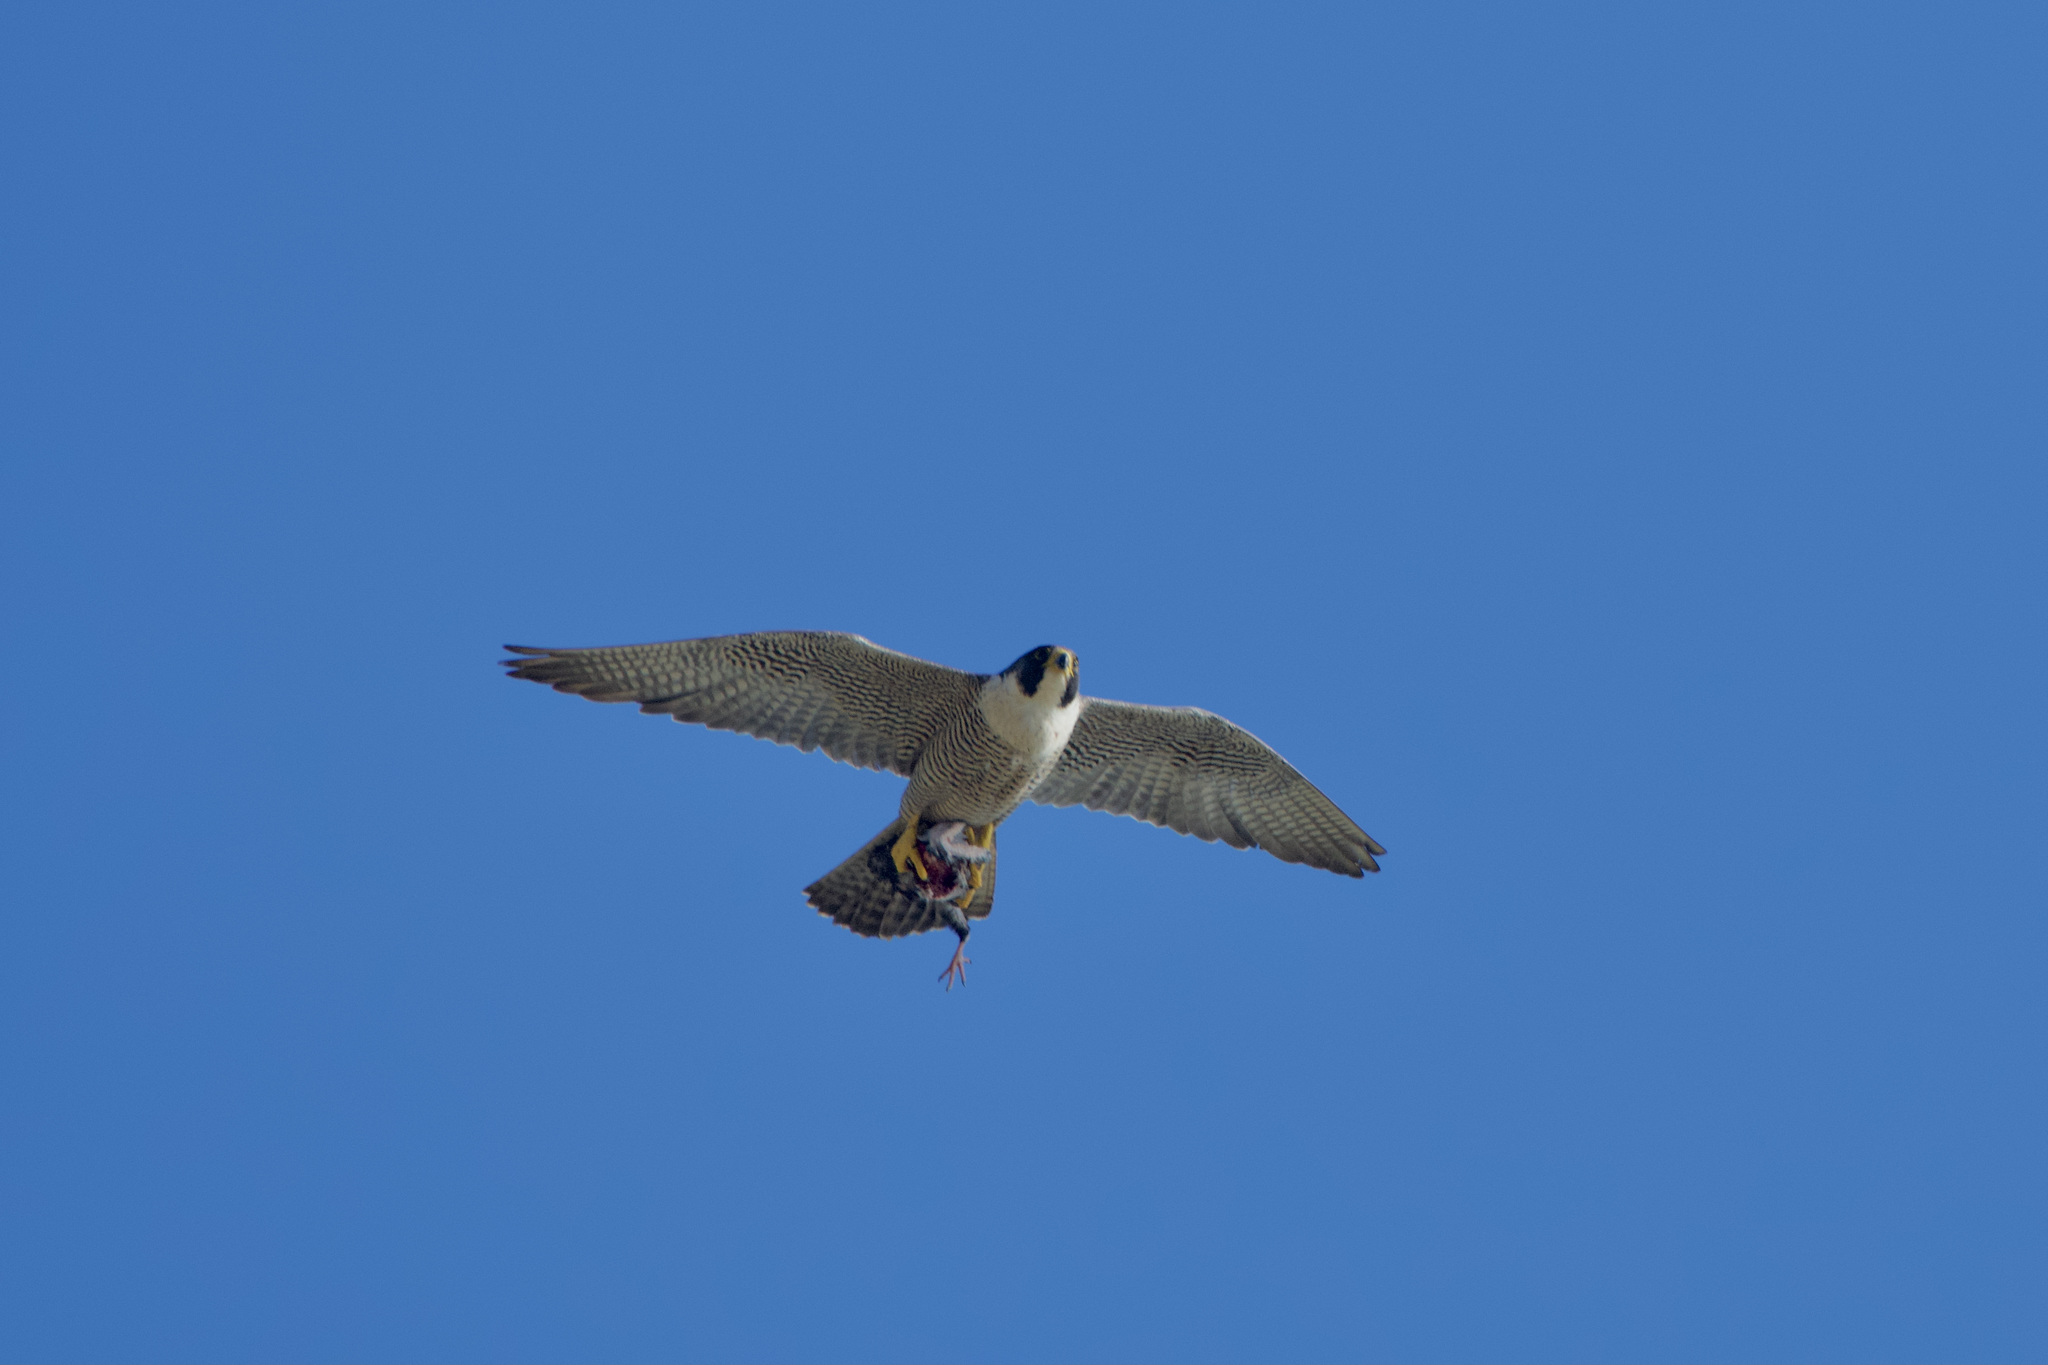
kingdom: Animalia
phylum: Chordata
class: Aves
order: Falconiformes
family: Falconidae
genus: Falco
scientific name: Falco peregrinus
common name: Peregrine falcon
